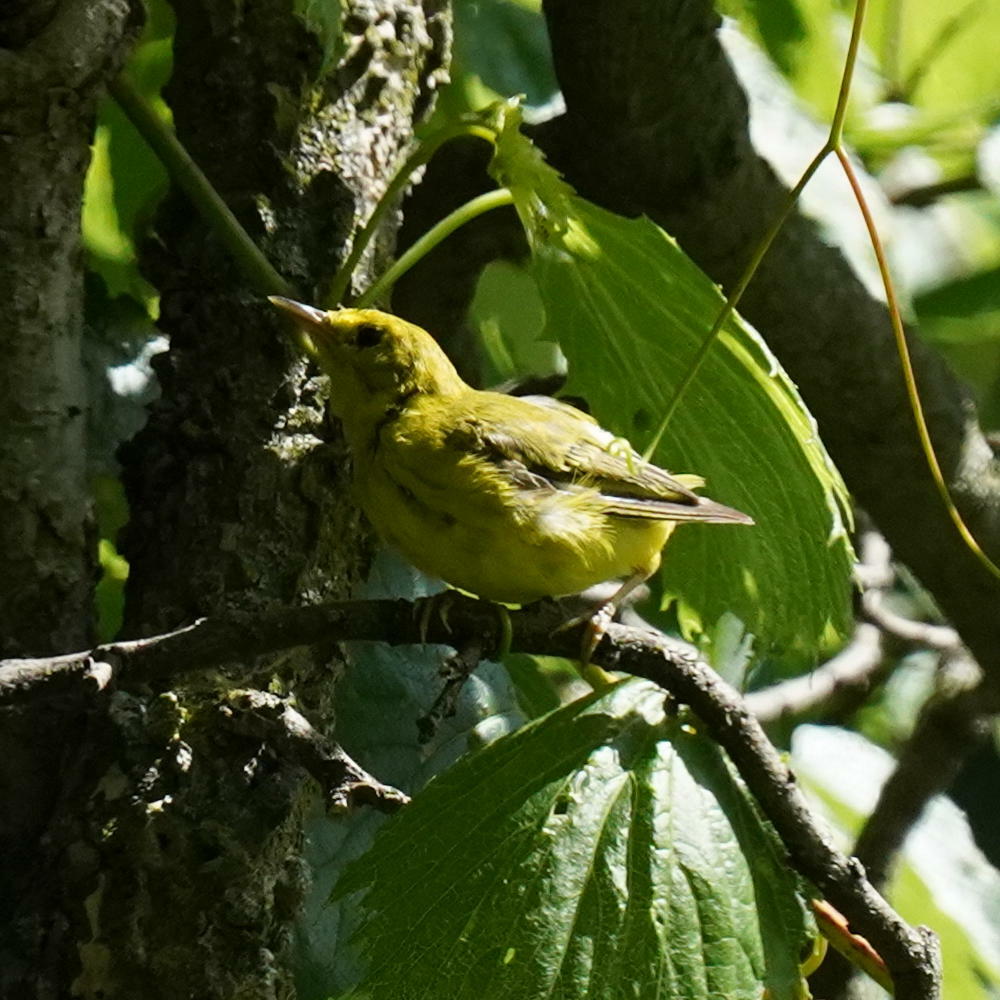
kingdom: Animalia
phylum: Chordata
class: Aves
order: Passeriformes
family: Parulidae
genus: Setophaga
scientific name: Setophaga petechia
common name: Yellow warbler
